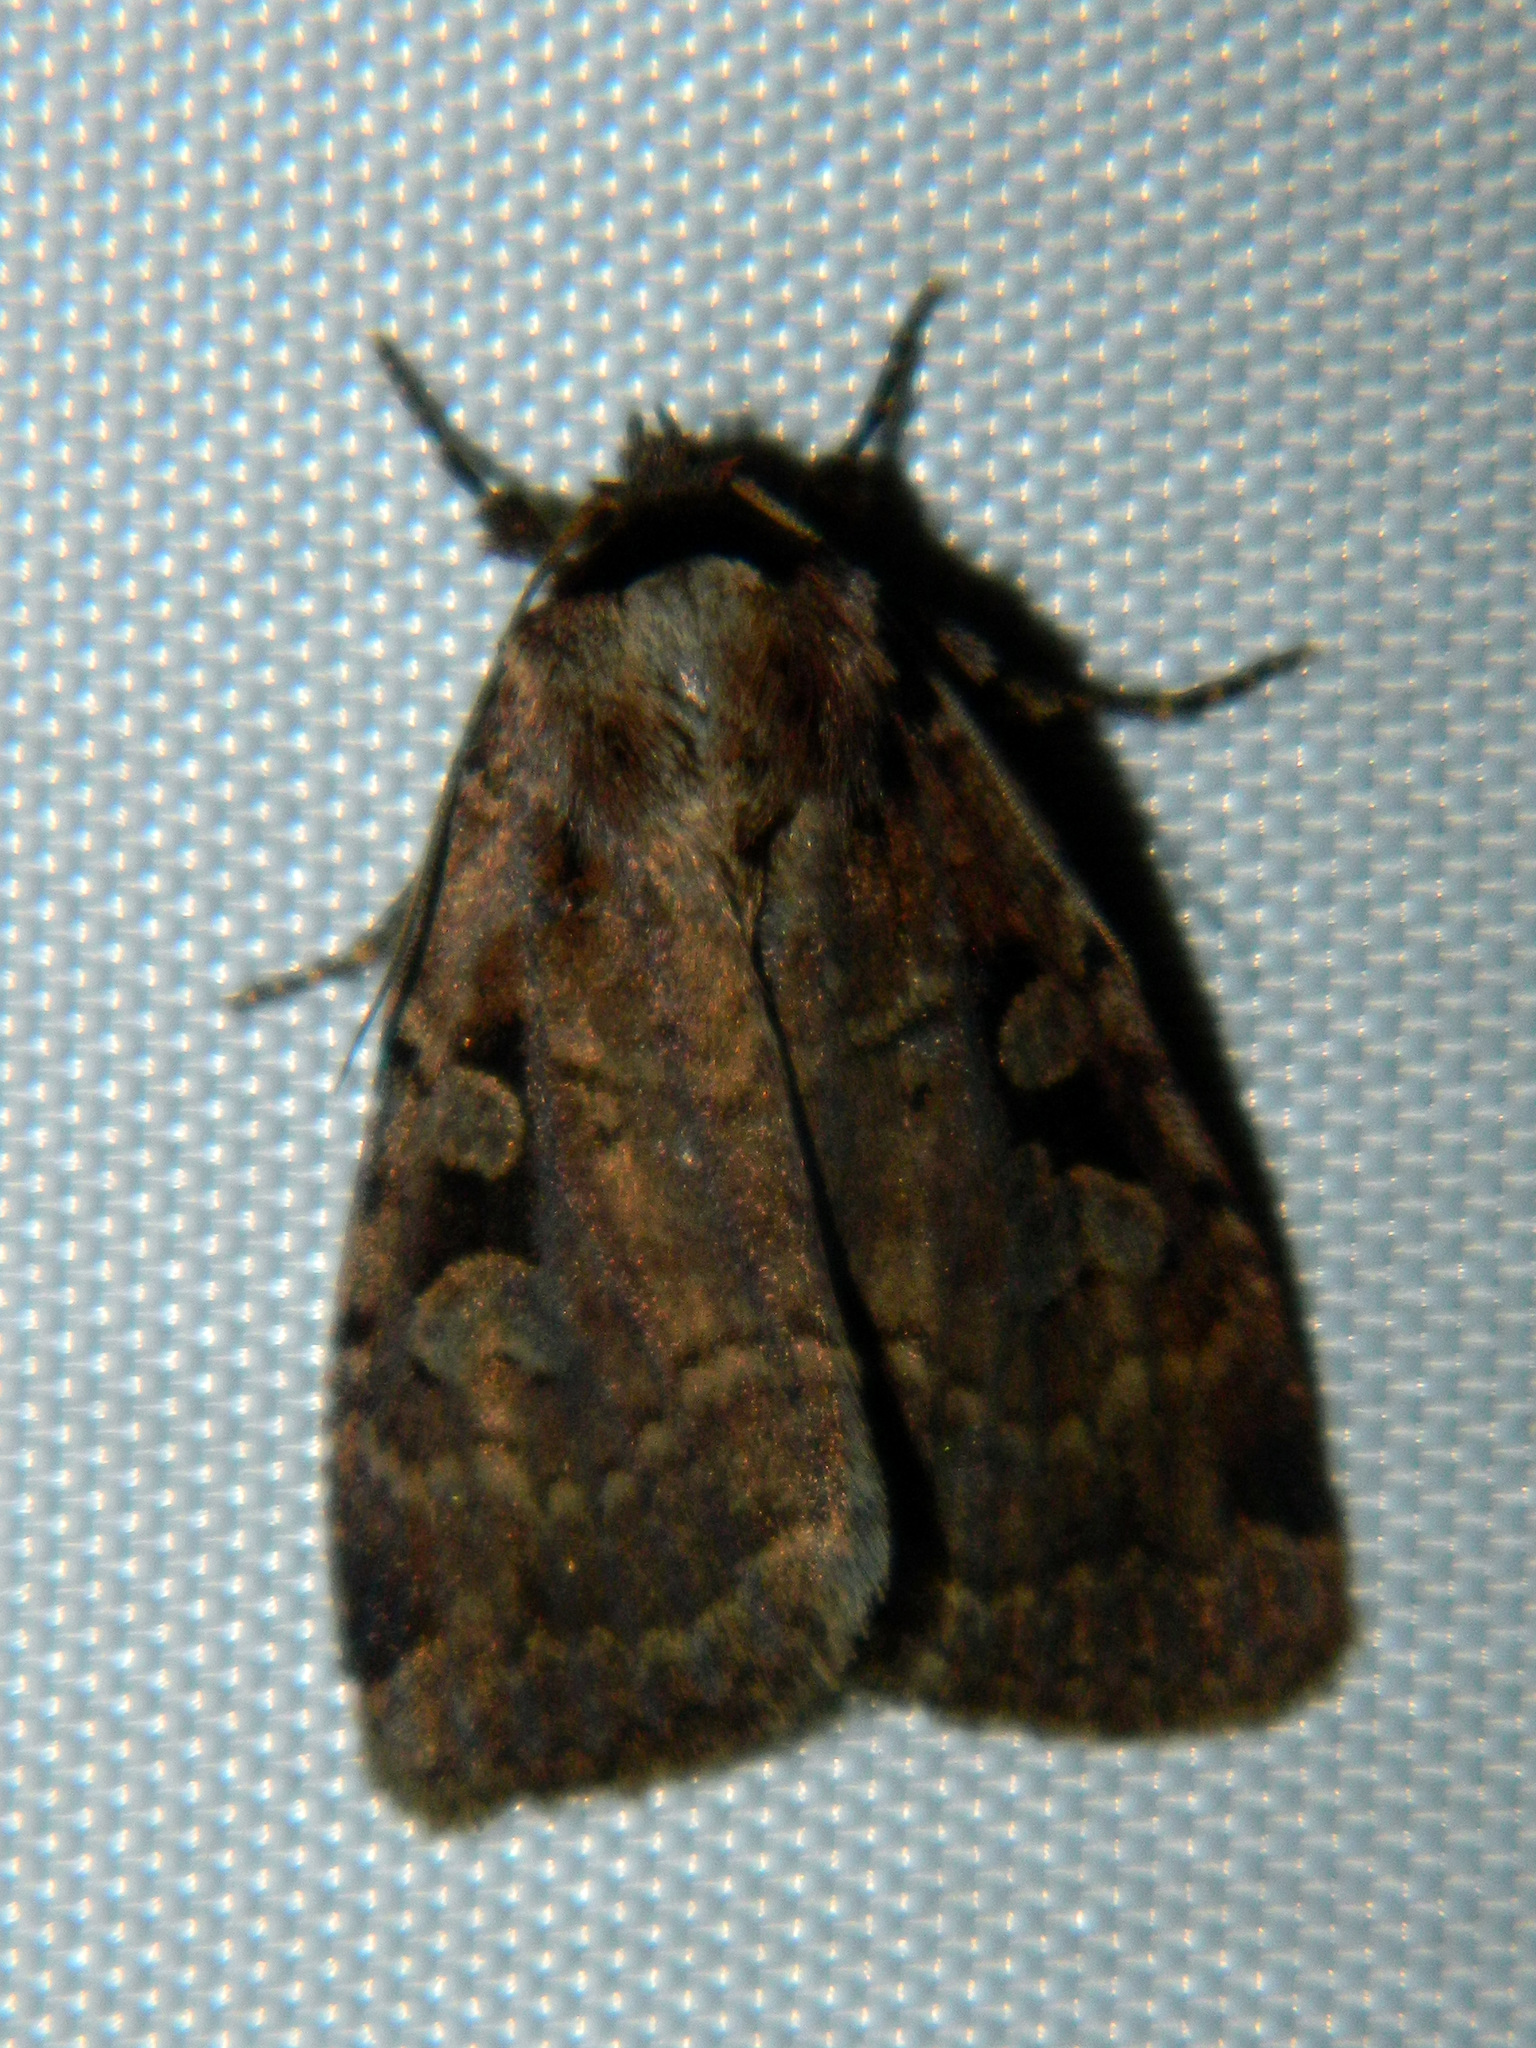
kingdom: Animalia
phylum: Arthropoda
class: Insecta
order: Lepidoptera
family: Noctuidae
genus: Eueretagrotis
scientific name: Eueretagrotis perattentus
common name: Two-spot dart moth
